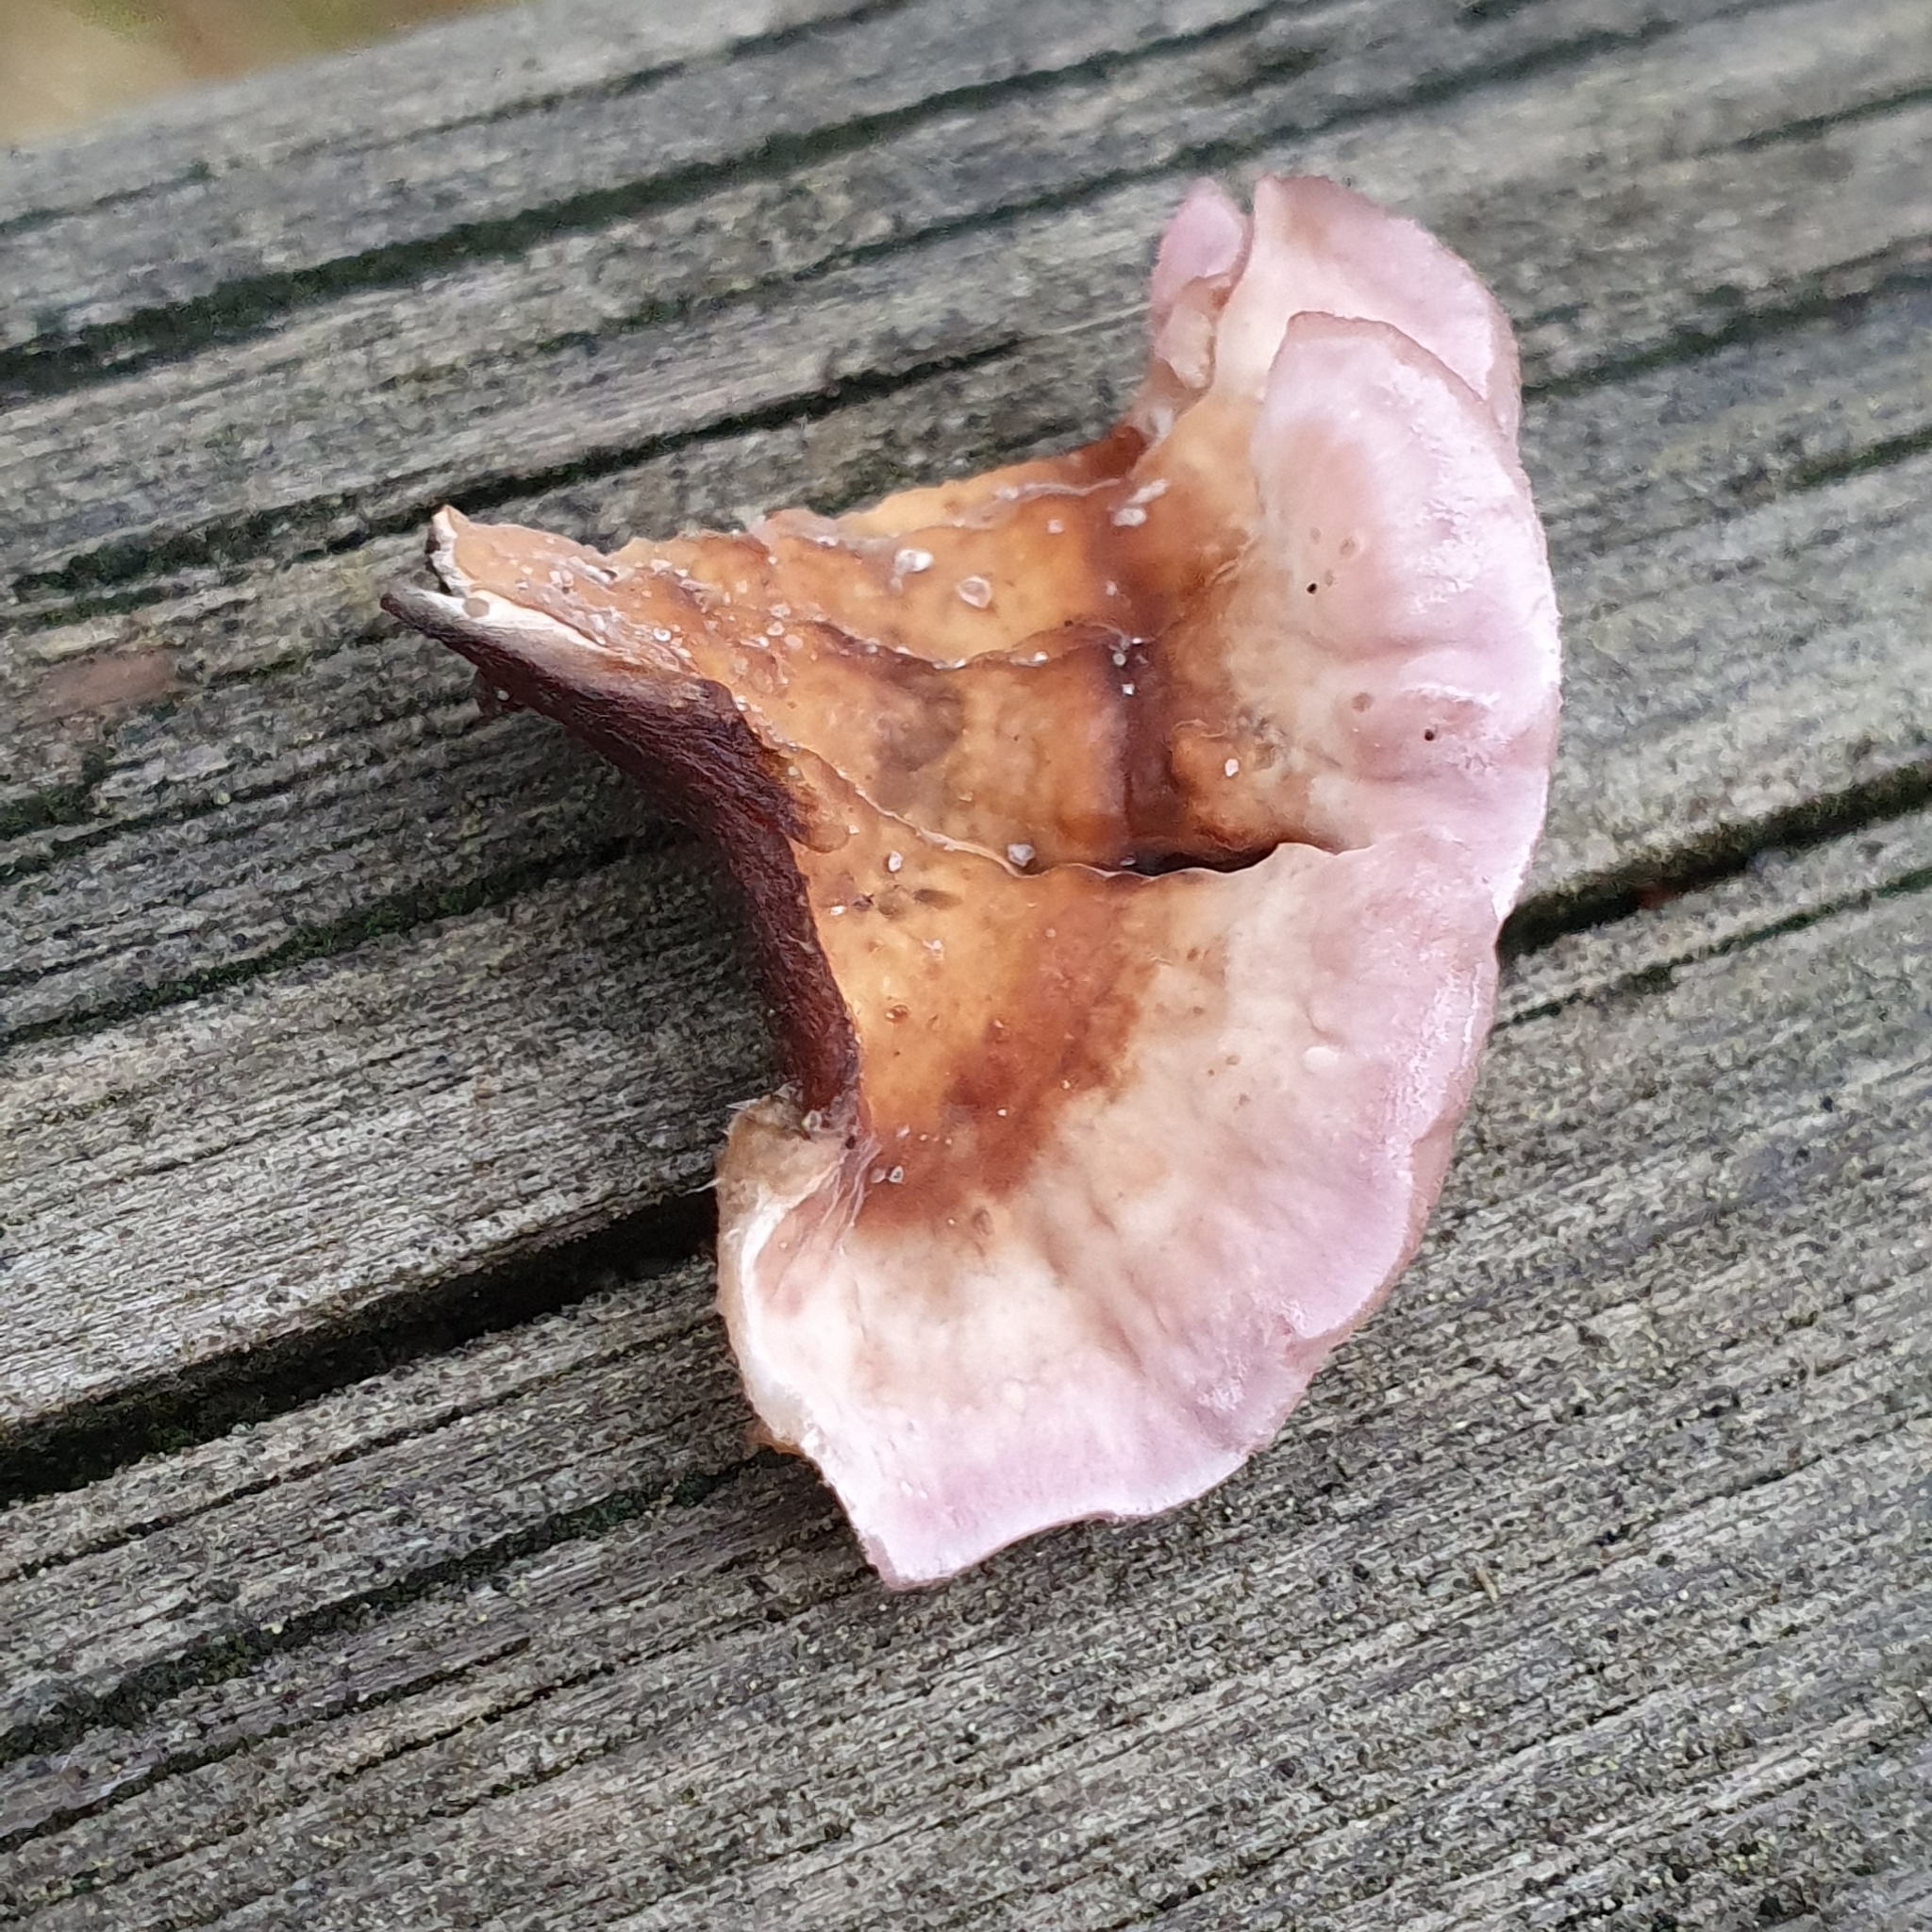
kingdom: Fungi
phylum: Basidiomycota
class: Agaricomycetes
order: Agaricales
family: Cyphellaceae
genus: Chondrostereum
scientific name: Chondrostereum purpureum
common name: Silver leaf disease
